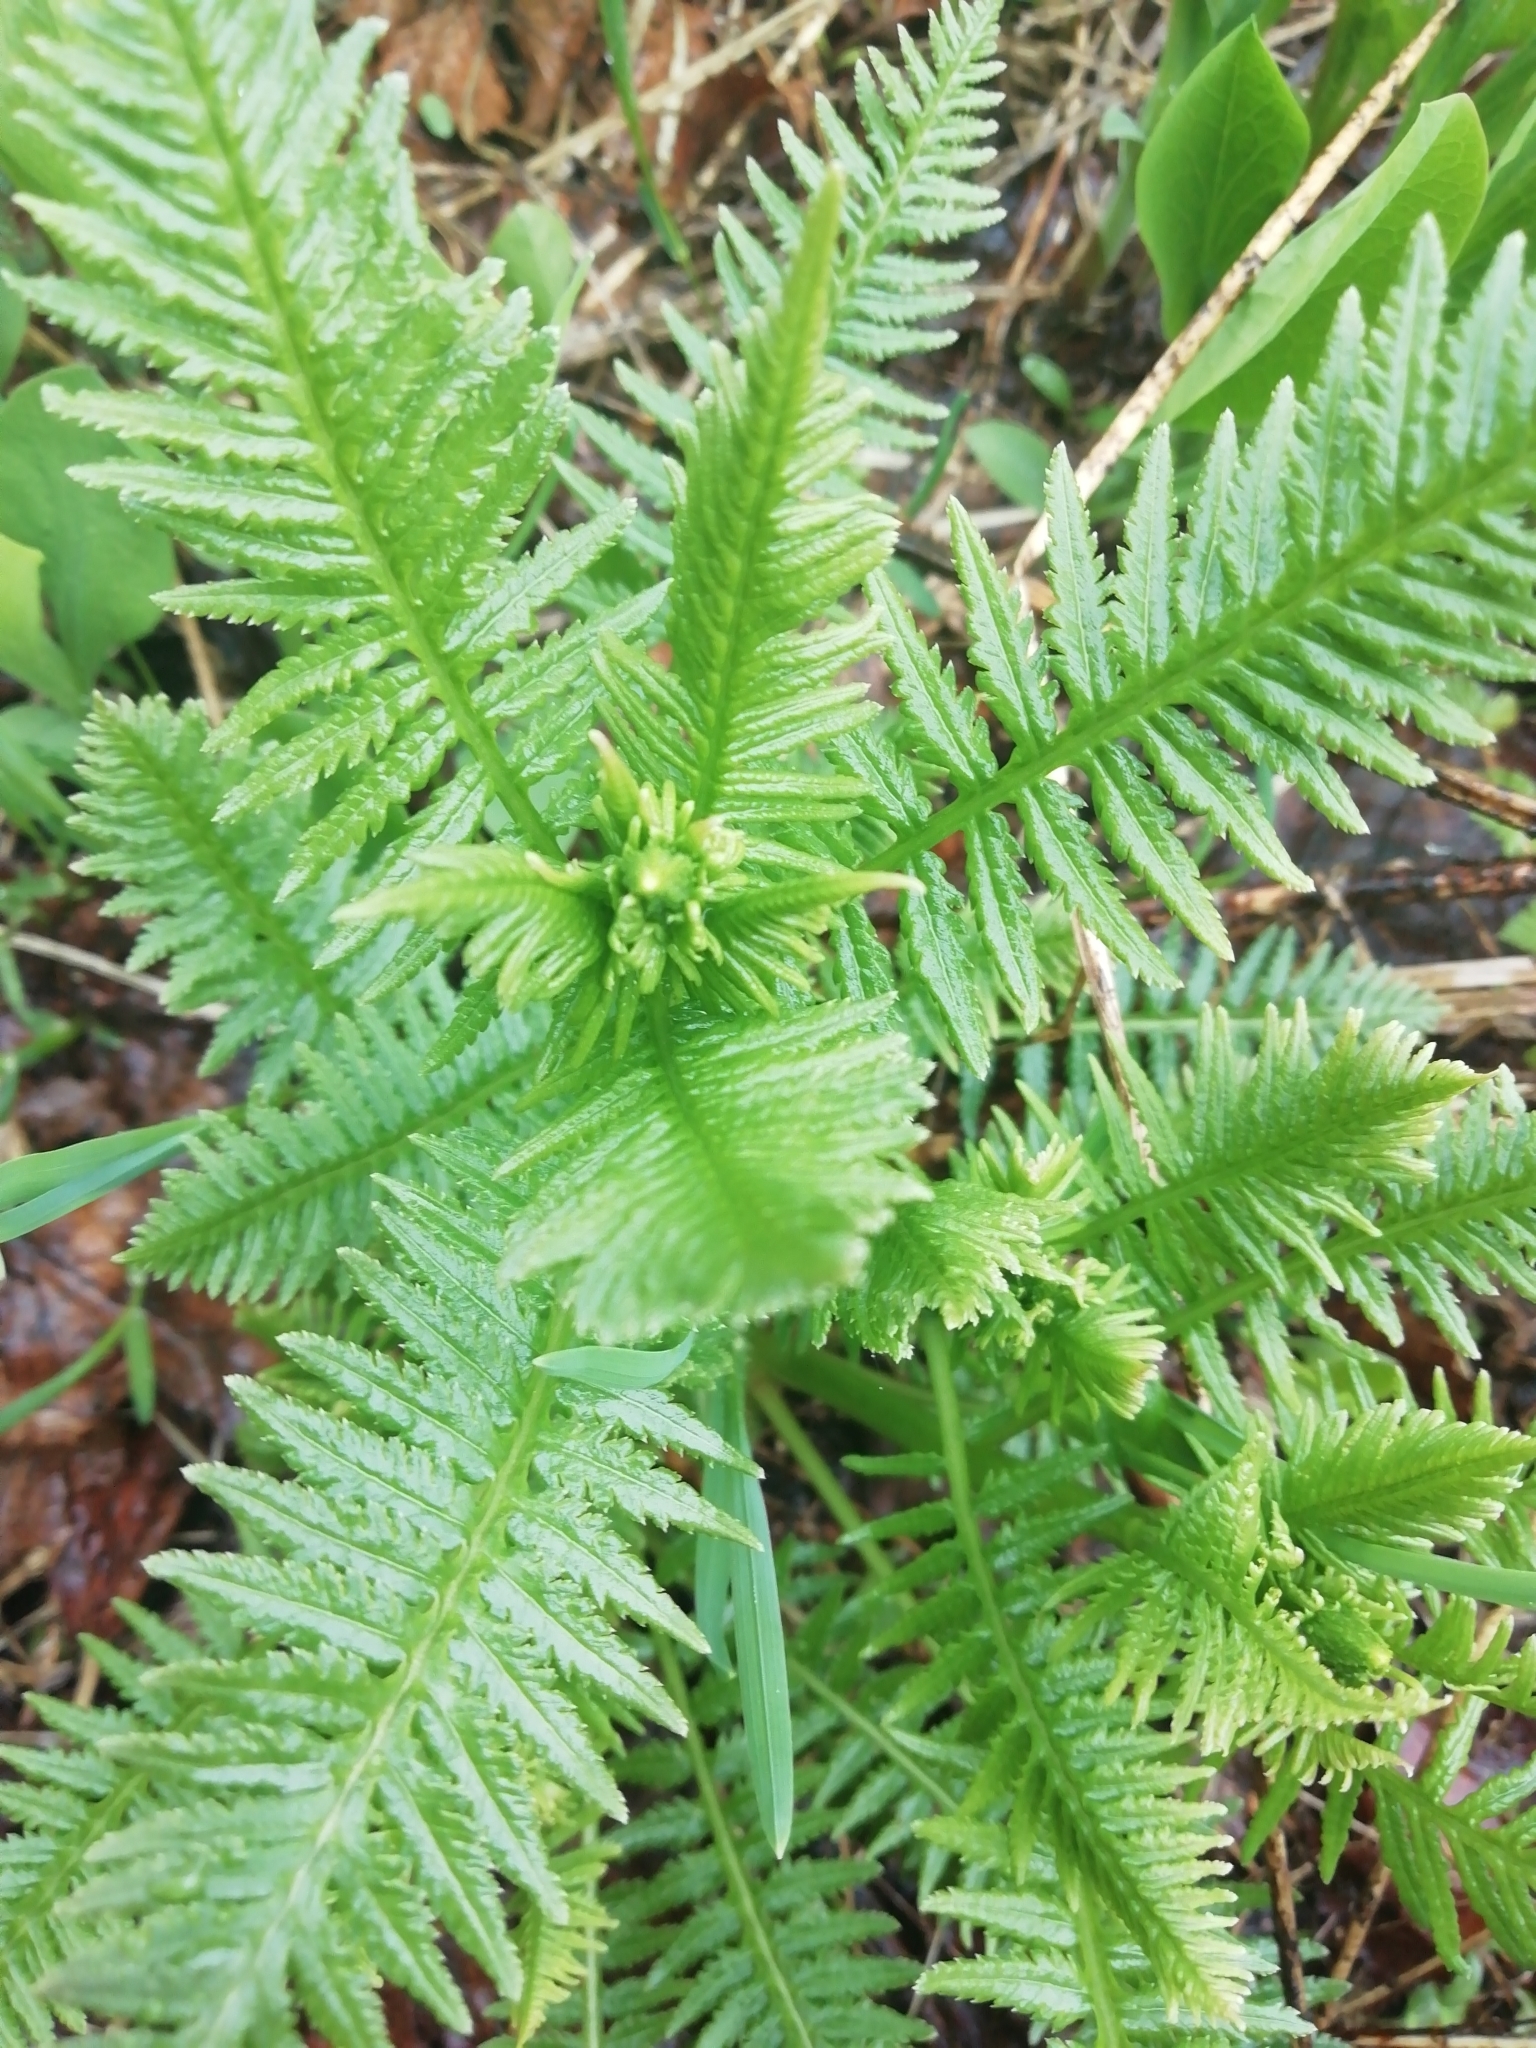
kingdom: Plantae
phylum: Tracheophyta
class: Magnoliopsida
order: Lamiales
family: Orobanchaceae
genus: Pedicularis
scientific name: Pedicularis incarnata
